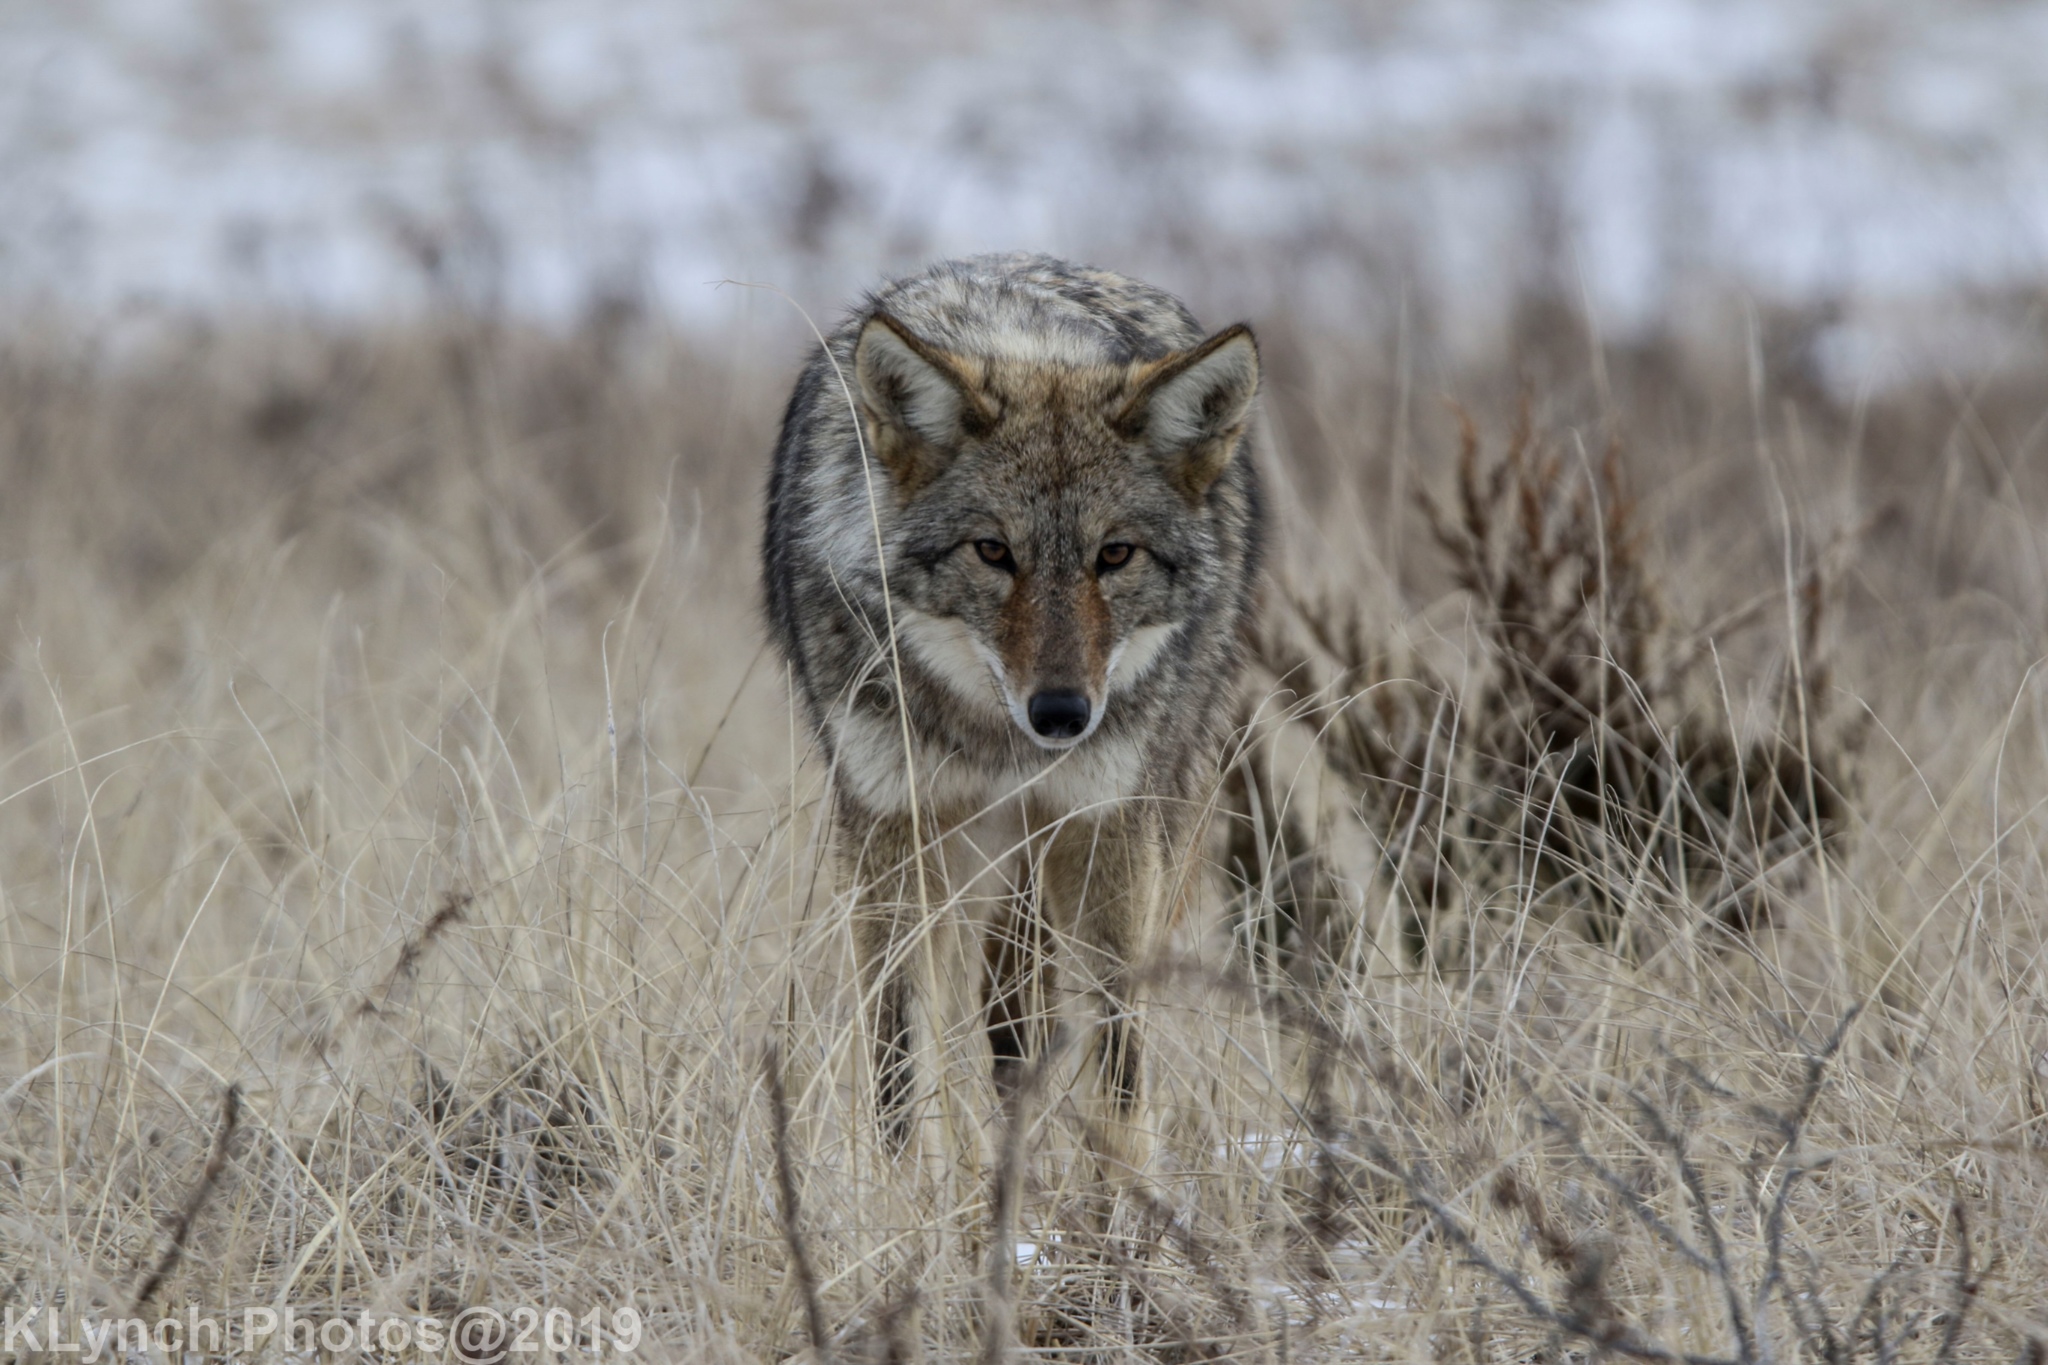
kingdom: Animalia
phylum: Chordata
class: Mammalia
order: Carnivora
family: Canidae
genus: Canis
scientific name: Canis latrans
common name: Coyote
